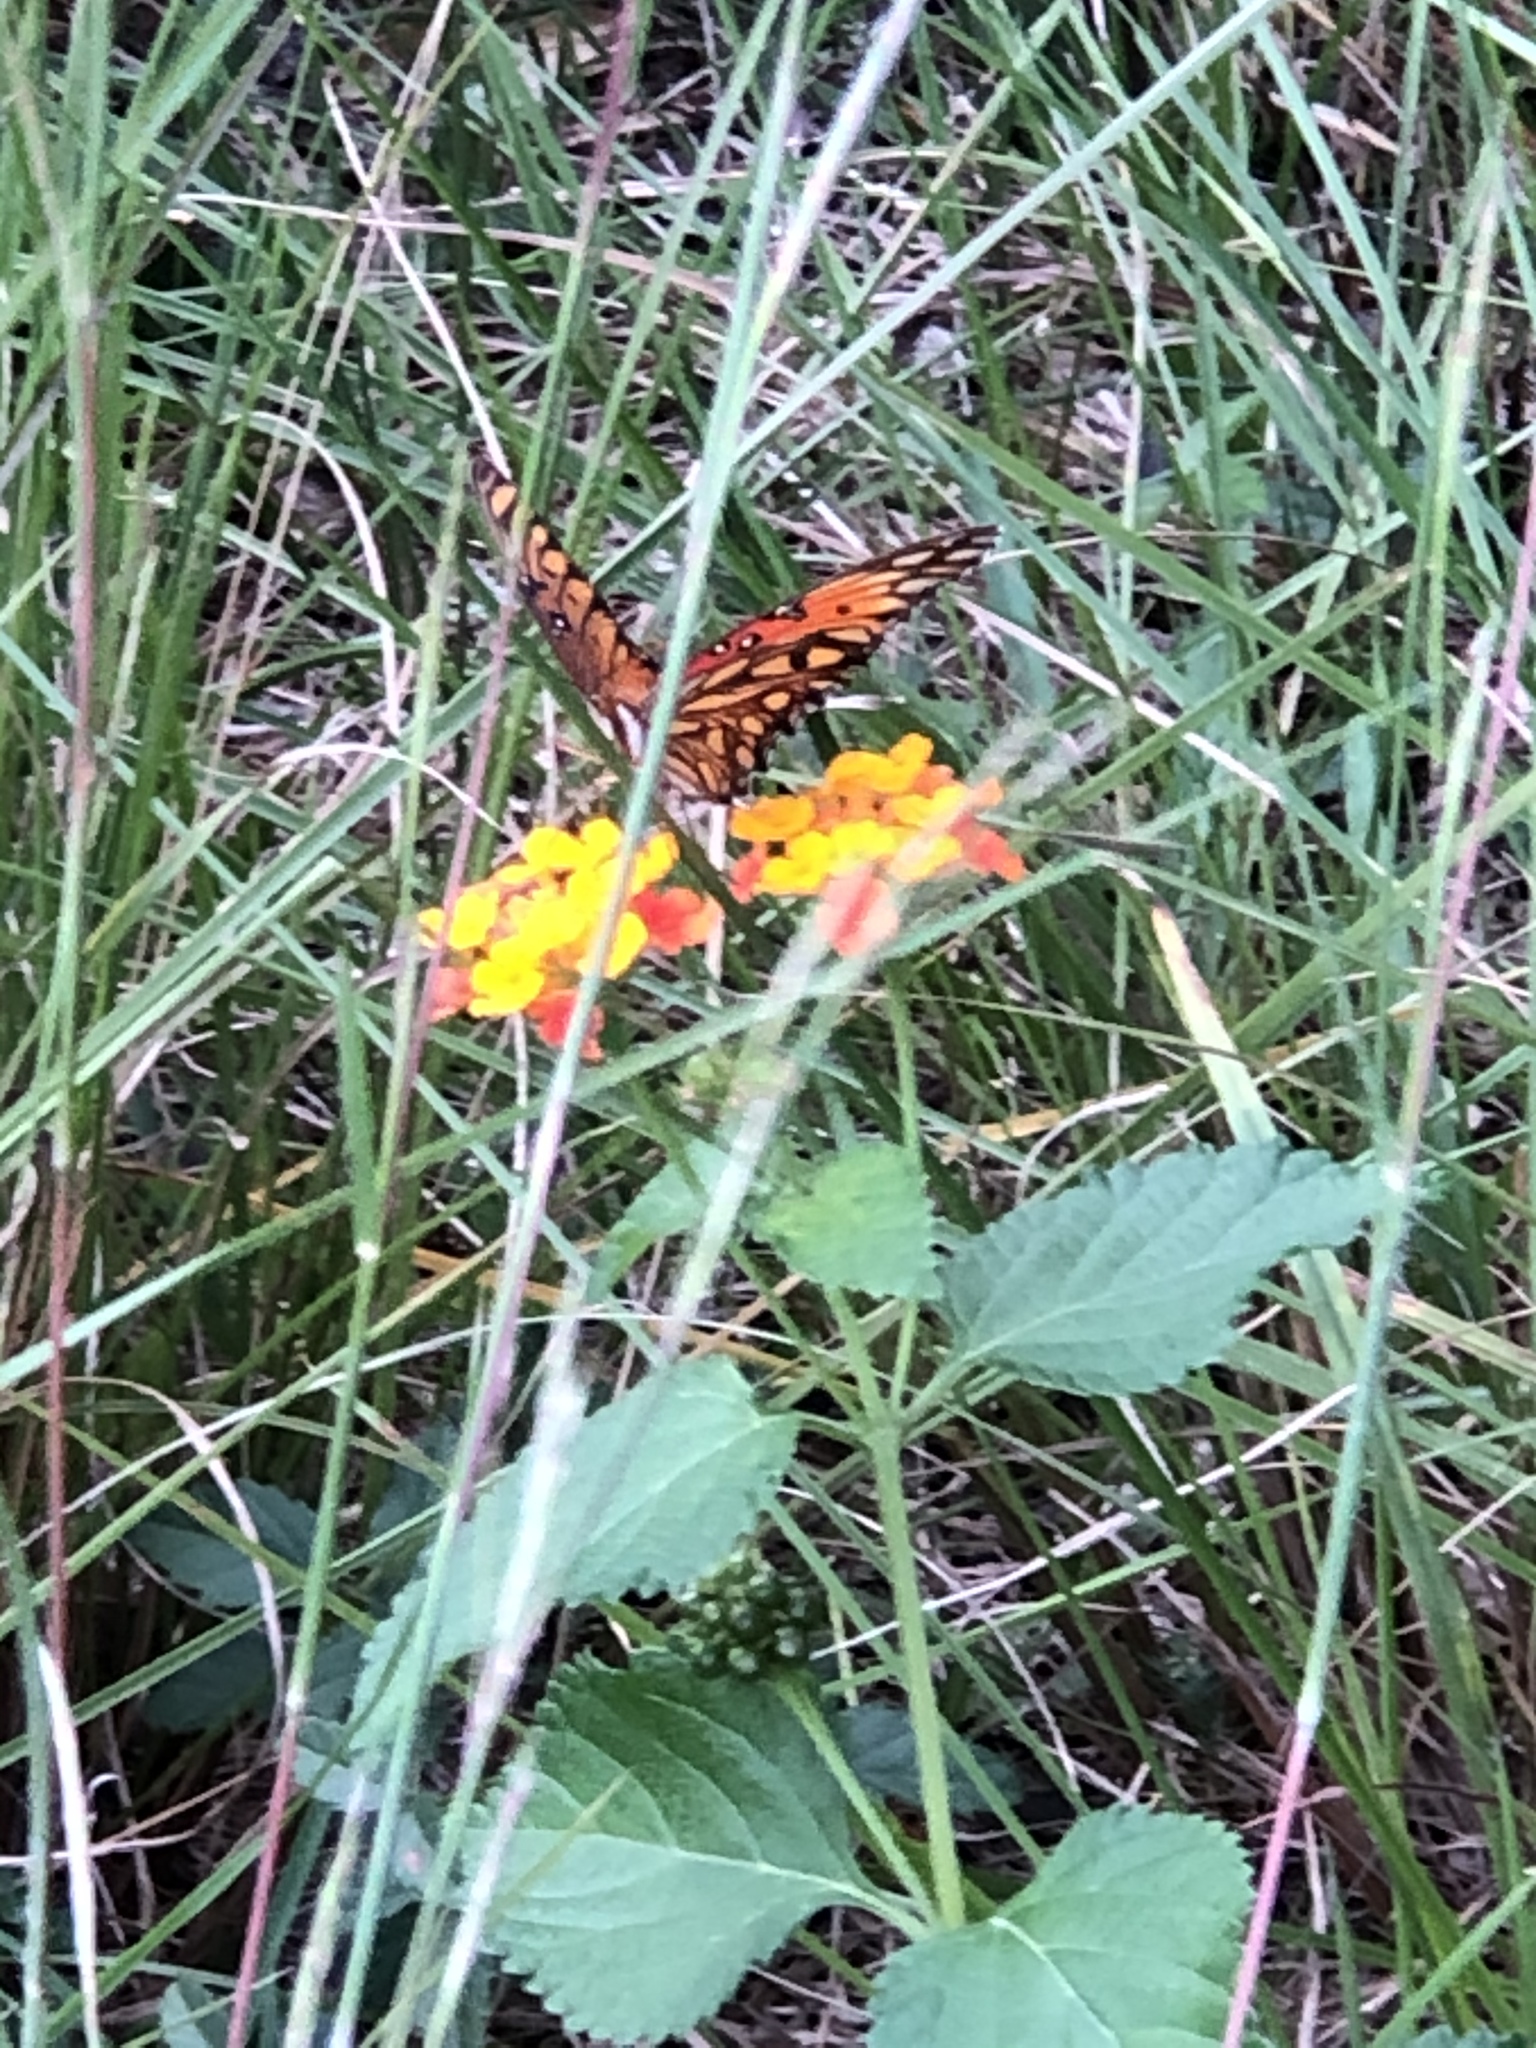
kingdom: Animalia
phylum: Arthropoda
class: Insecta
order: Lepidoptera
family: Nymphalidae
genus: Dione
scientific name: Dione vanillae
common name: Gulf fritillary
